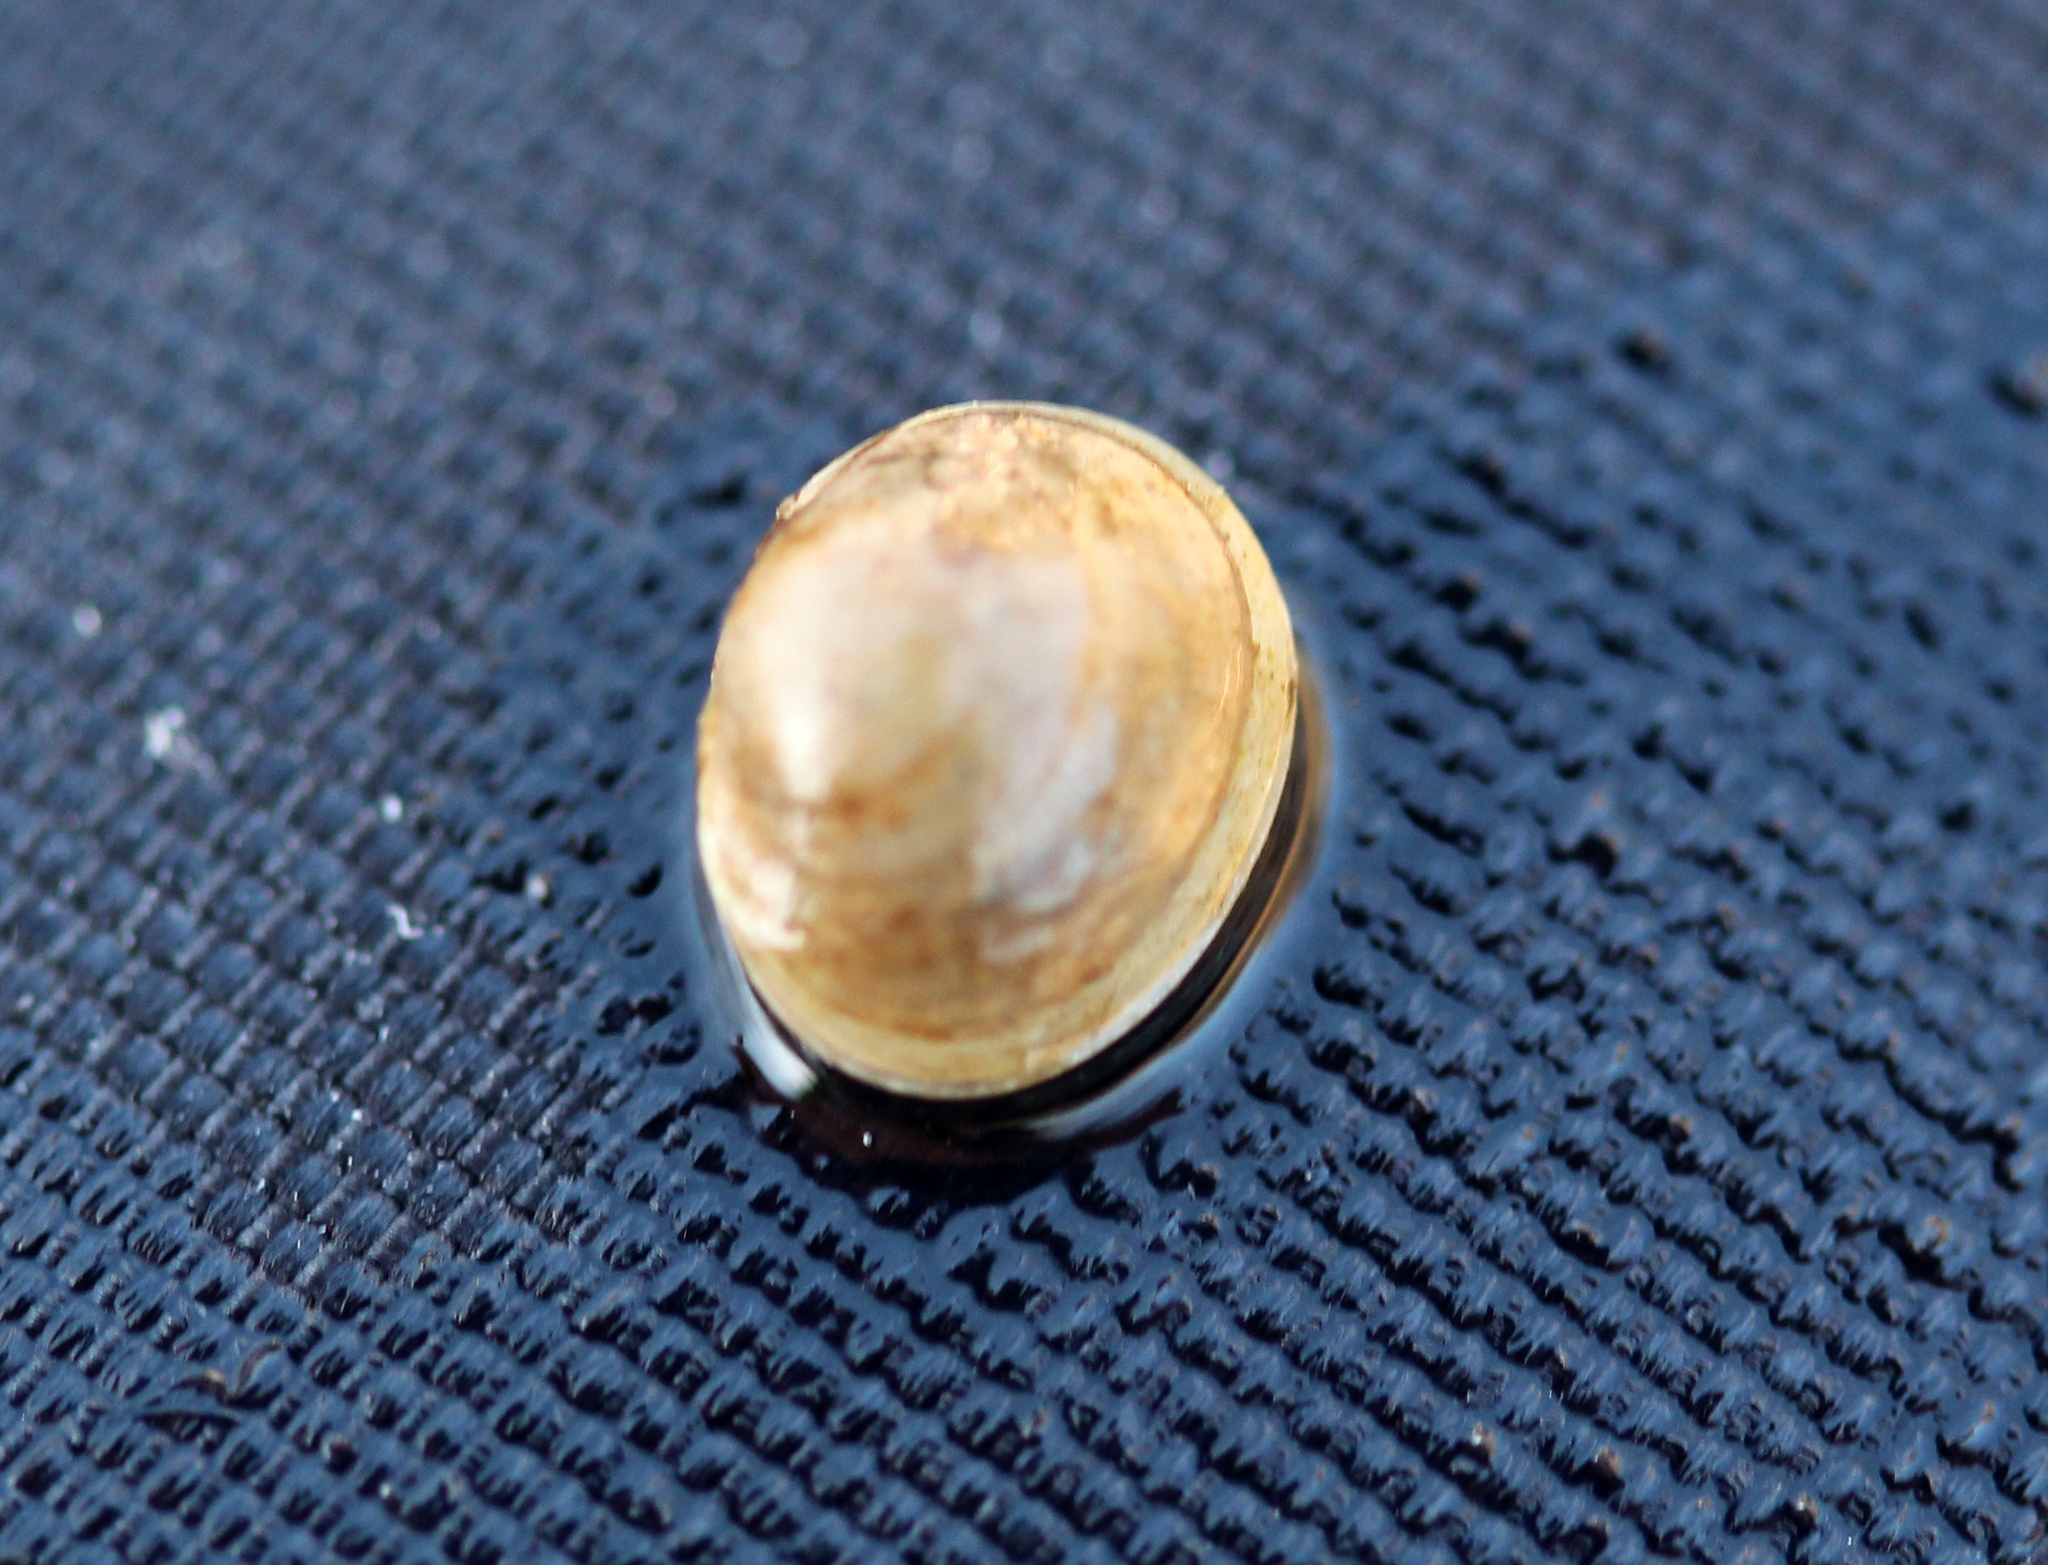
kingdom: Animalia
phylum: Mollusca
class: Bivalvia
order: Sphaeriida
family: Sphaeriidae
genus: Sphaerium
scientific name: Sphaerium occidentale
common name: Herrington fingernailclam
